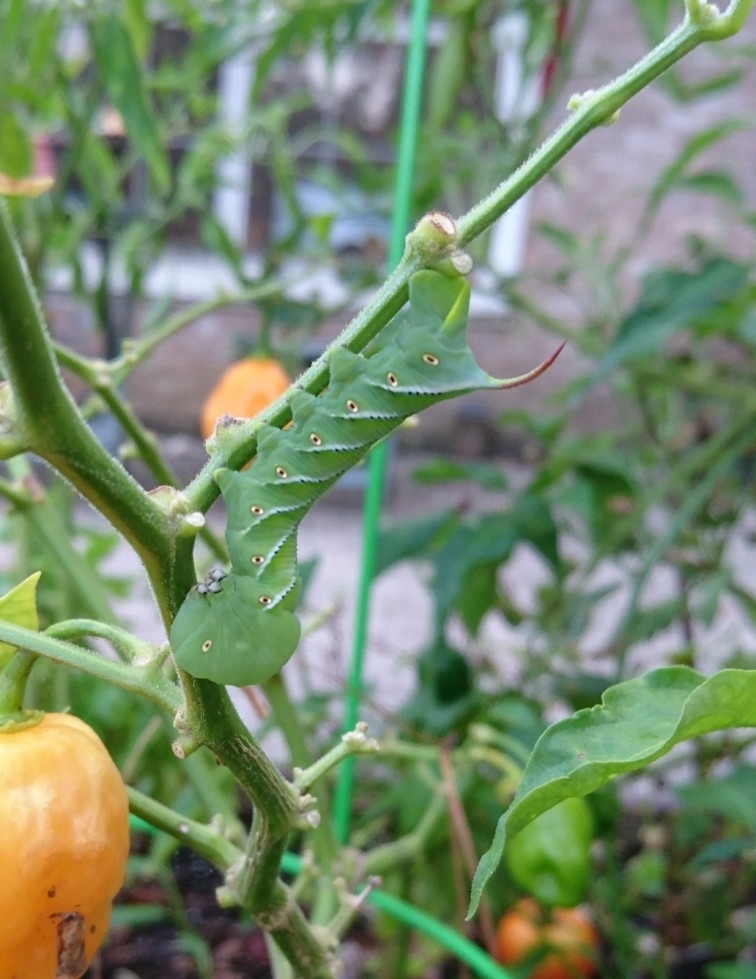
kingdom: Animalia
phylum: Arthropoda
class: Insecta
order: Lepidoptera
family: Sphingidae
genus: Manduca
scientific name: Manduca sexta
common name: Carolina sphinx
